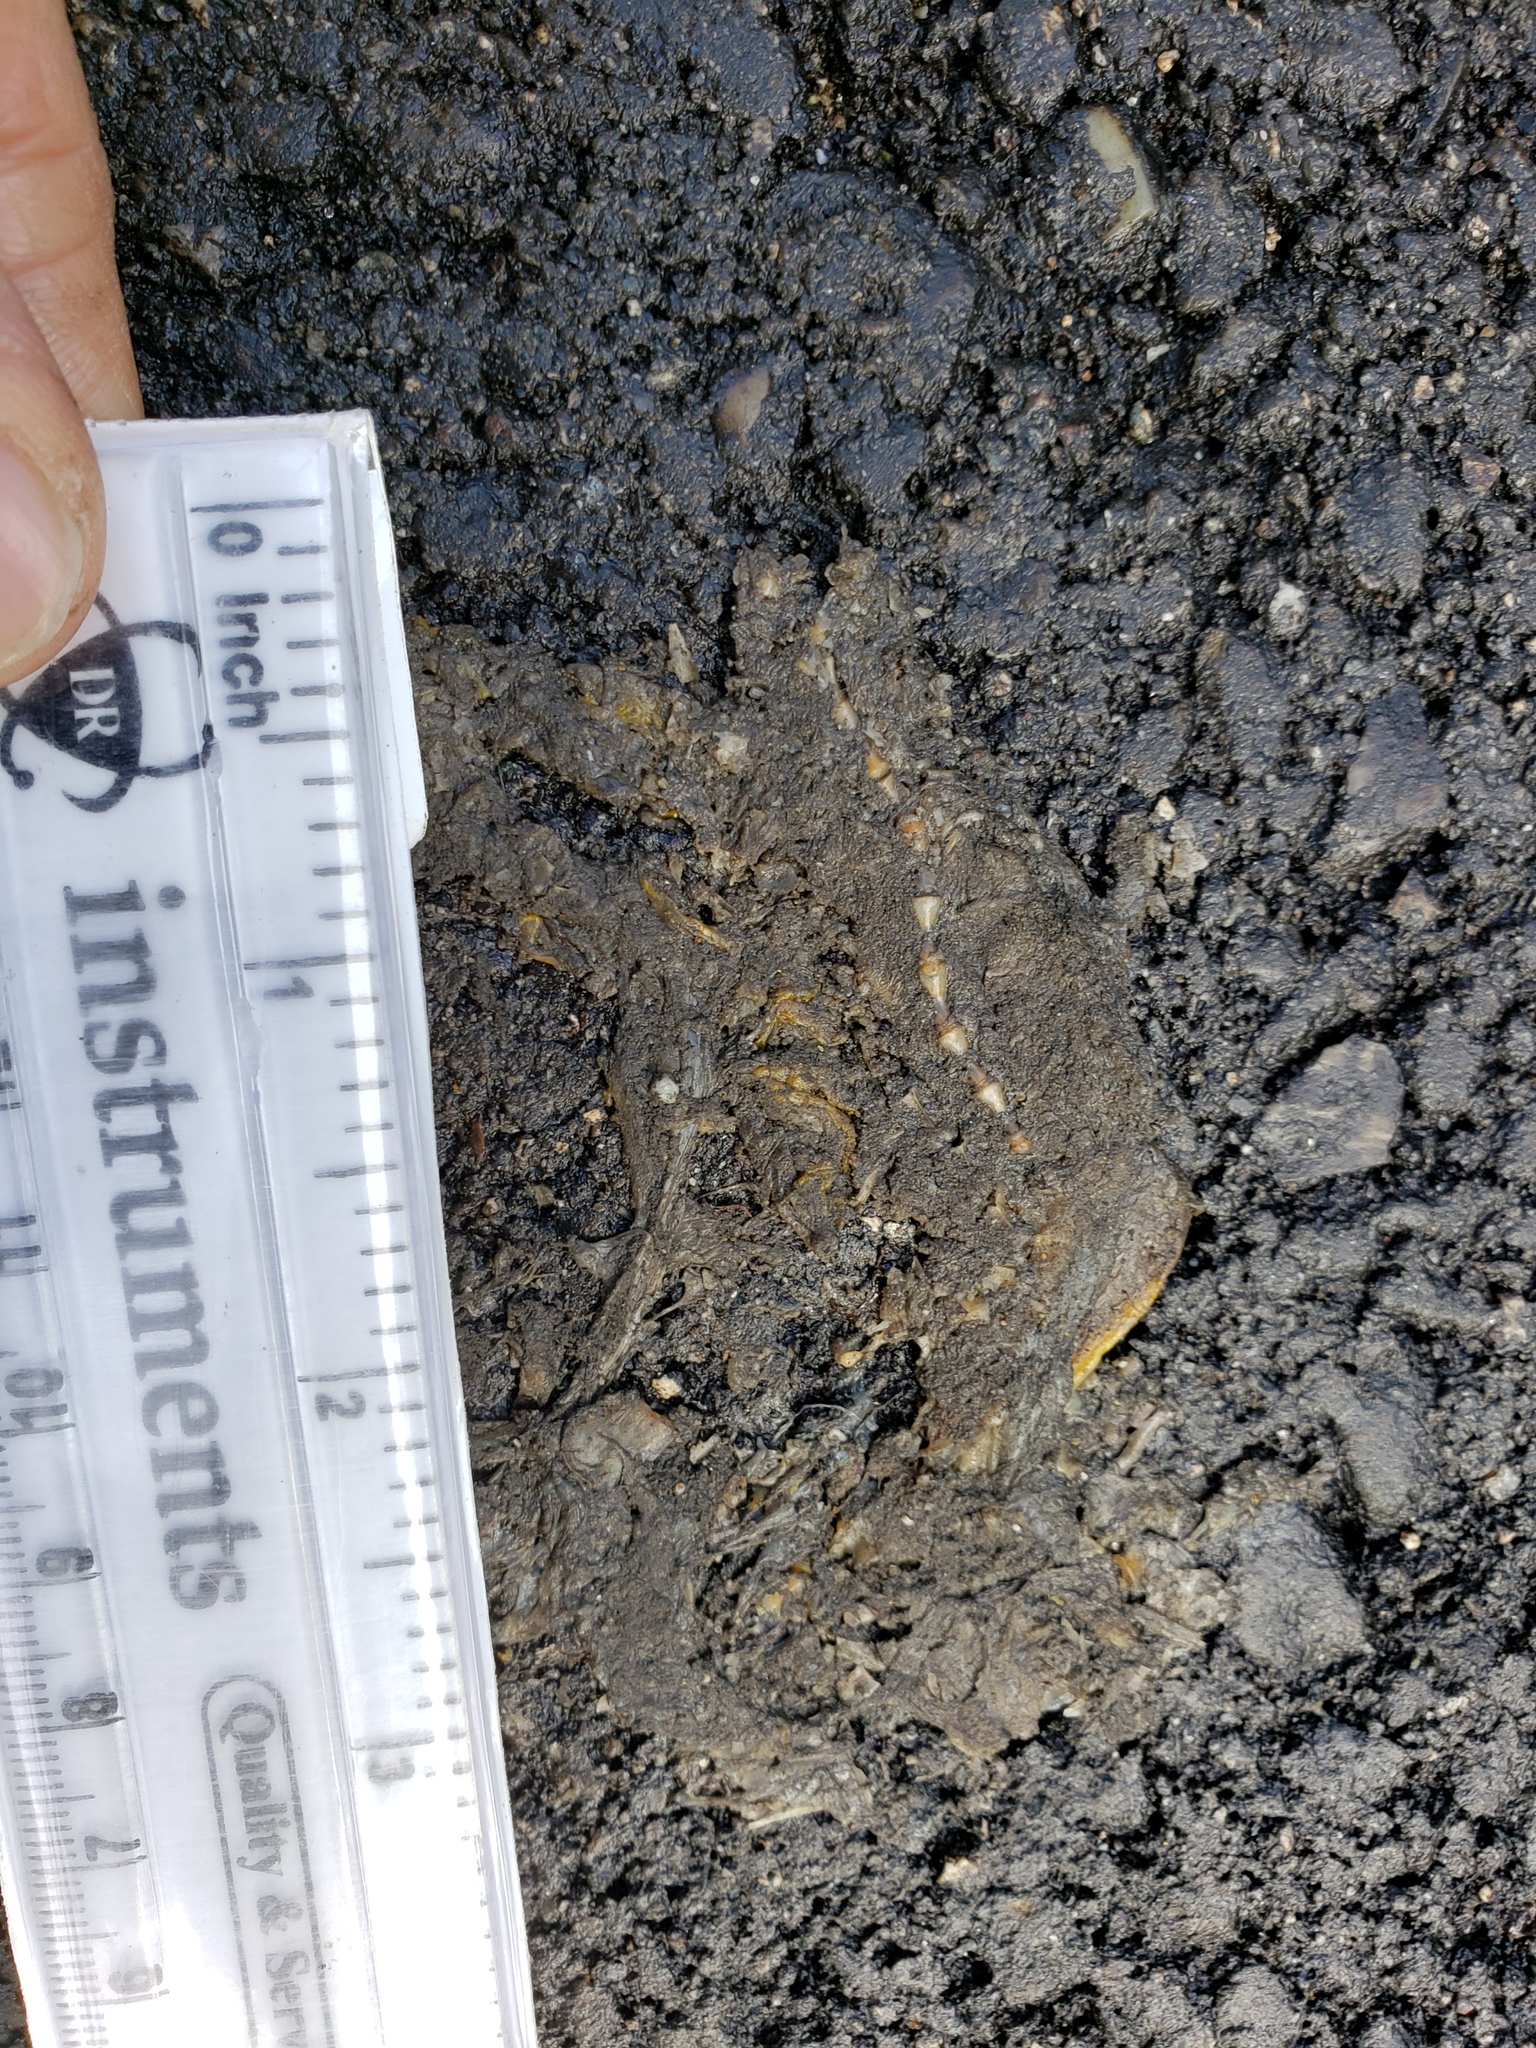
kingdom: Animalia
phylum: Chordata
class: Amphibia
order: Caudata
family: Salamandridae
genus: Taricha
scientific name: Taricha
